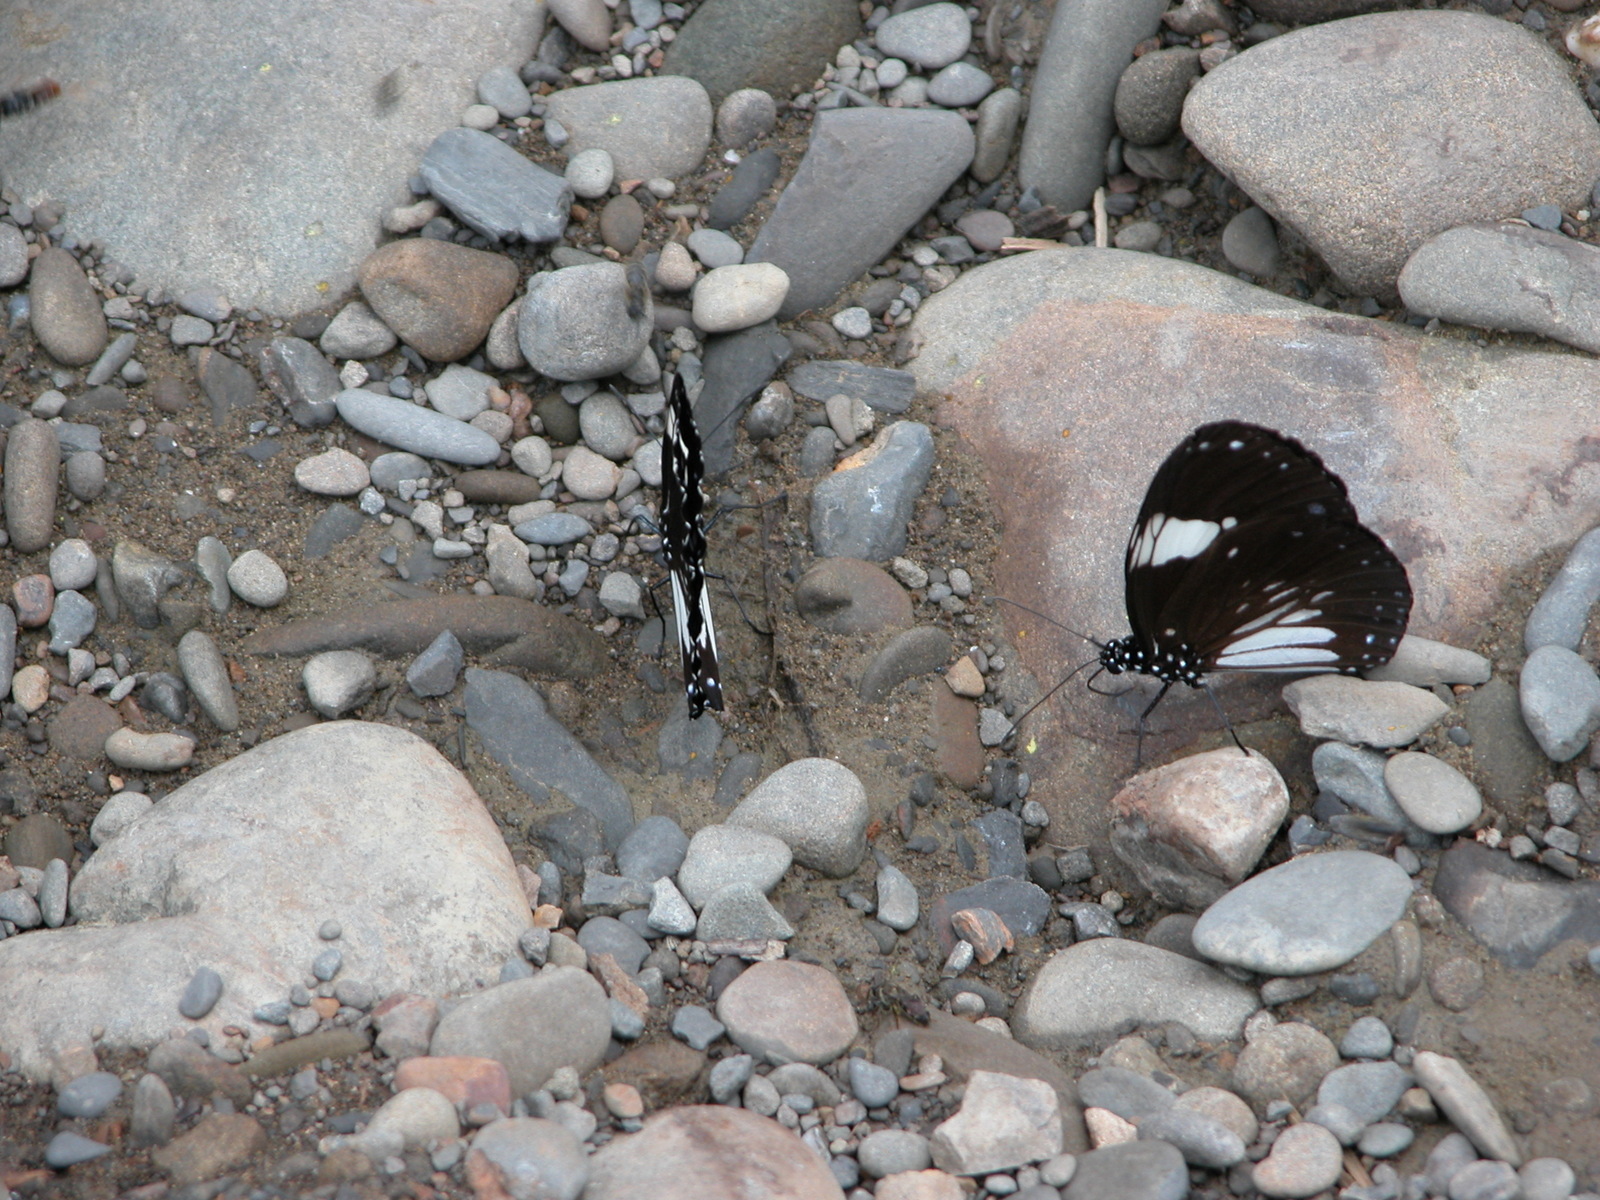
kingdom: Animalia
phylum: Arthropoda
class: Insecta
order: Lepidoptera
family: Nymphalidae
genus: Euploea
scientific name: Euploea radamanthus
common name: Magpie crow butterfly
